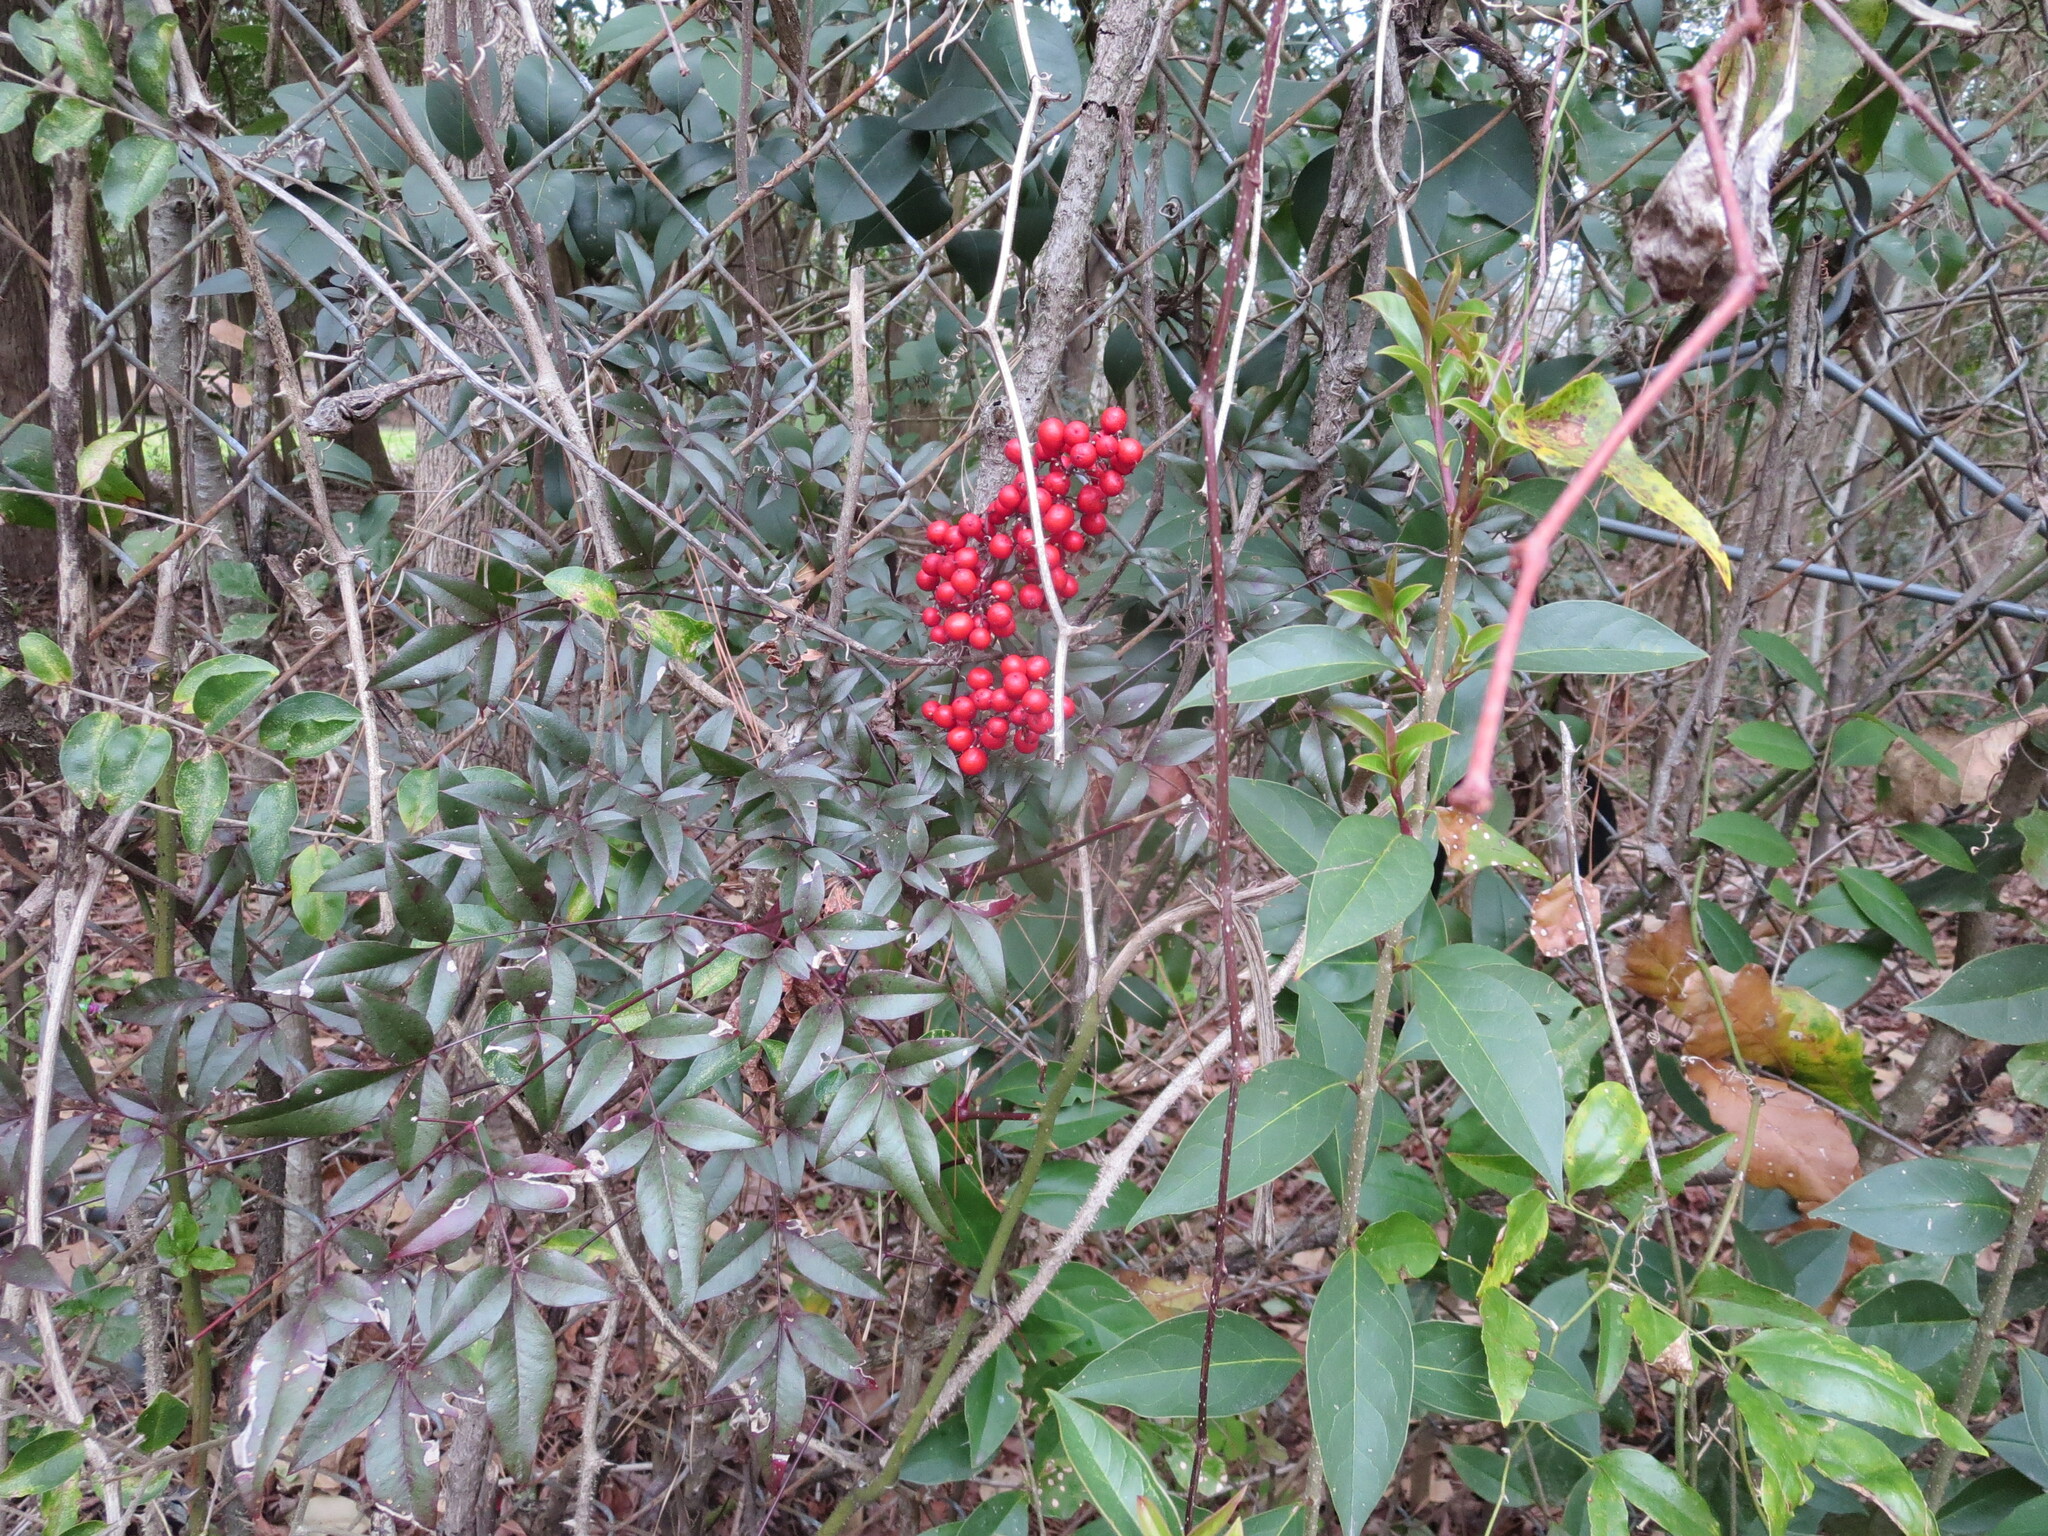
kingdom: Plantae
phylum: Tracheophyta
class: Magnoliopsida
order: Ranunculales
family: Berberidaceae
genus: Nandina
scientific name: Nandina domestica
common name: Sacred bamboo
